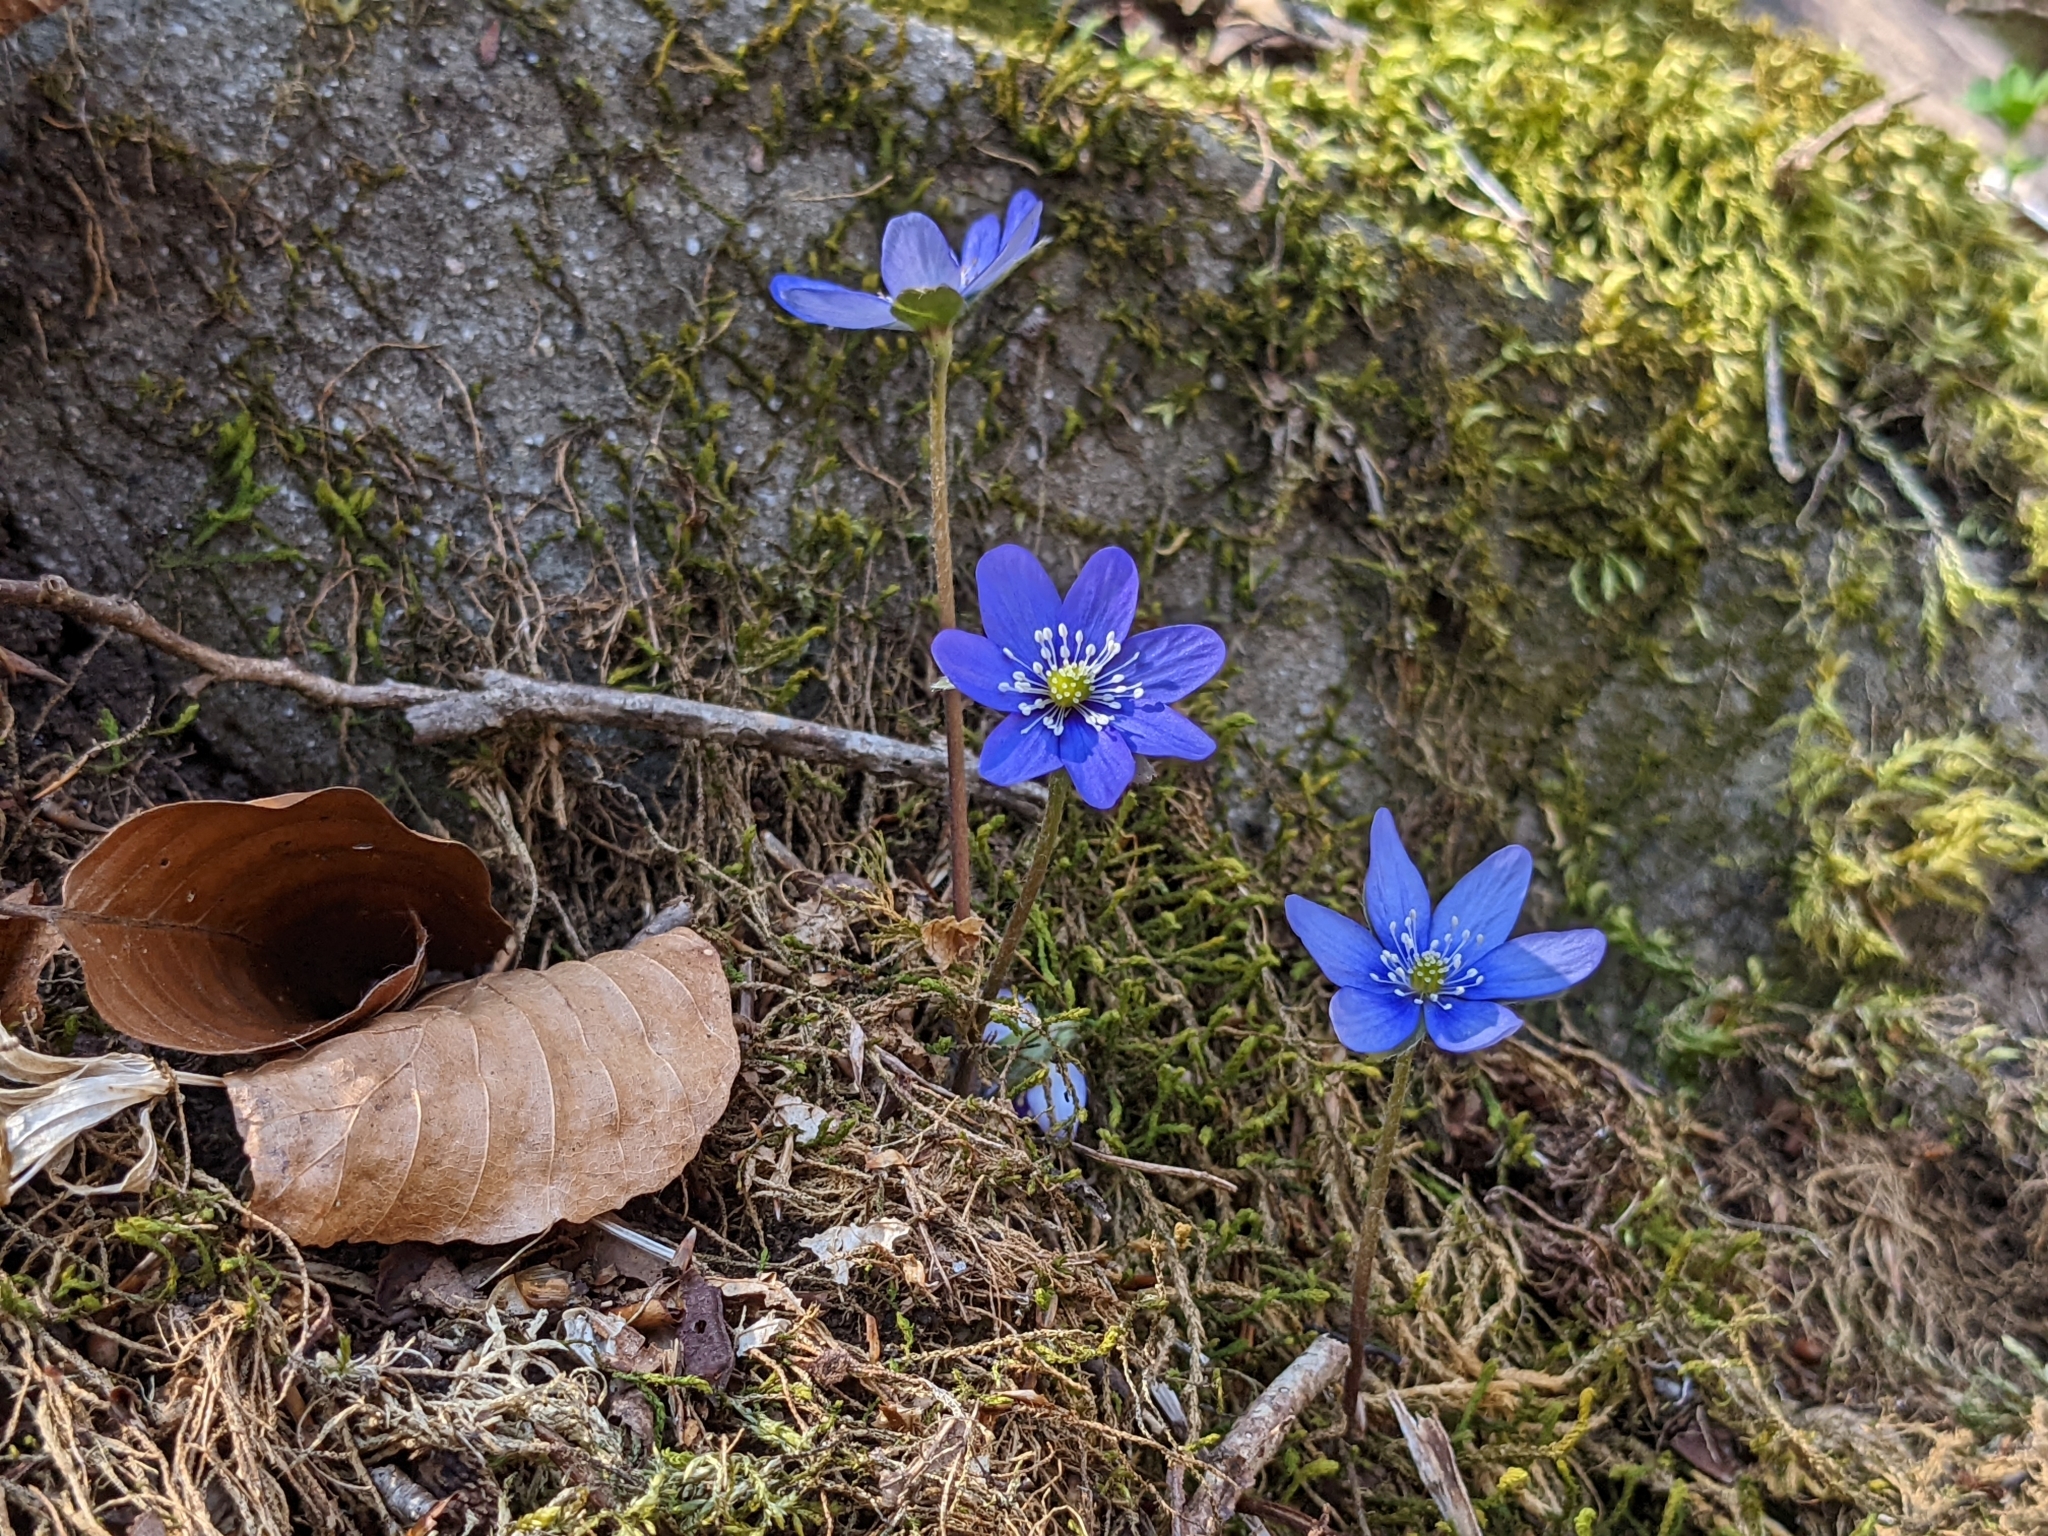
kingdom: Plantae
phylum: Tracheophyta
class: Magnoliopsida
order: Ranunculales
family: Ranunculaceae
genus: Hepatica
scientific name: Hepatica nobilis
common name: Liverleaf
